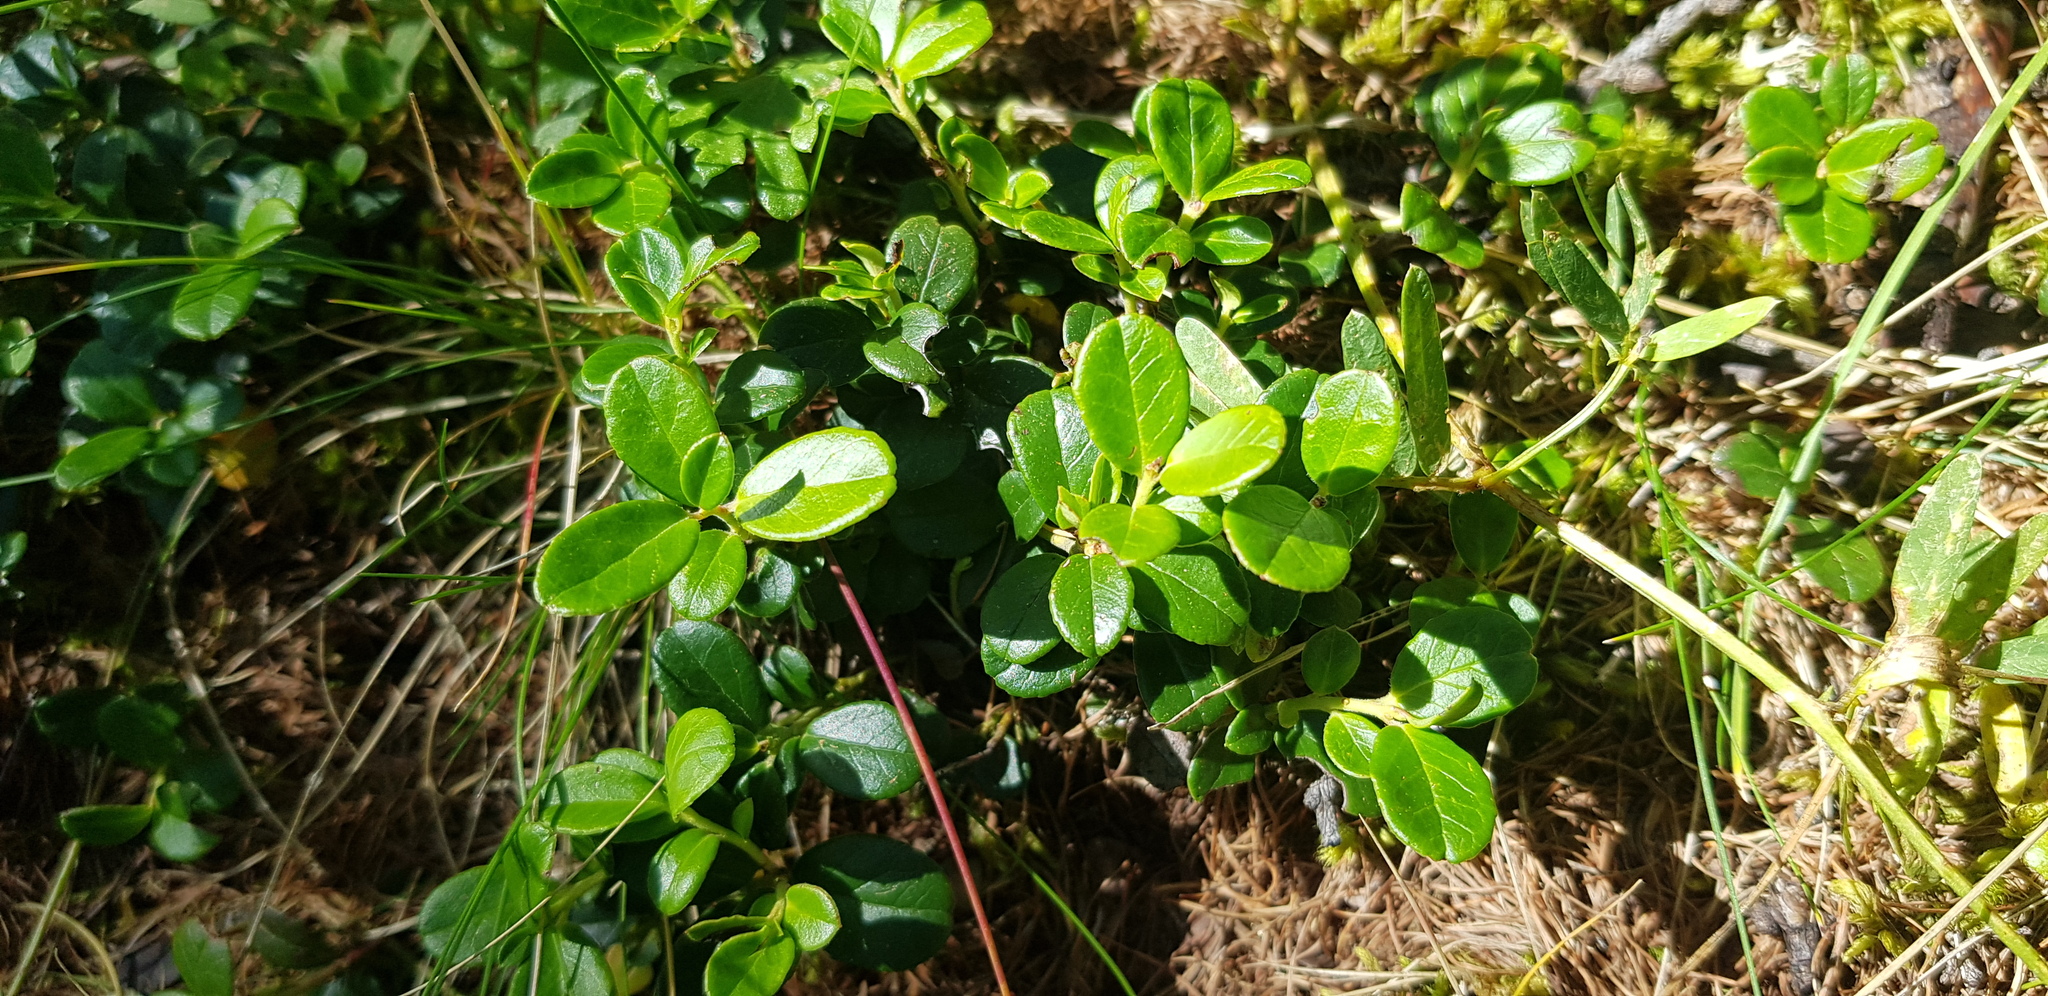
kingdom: Plantae
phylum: Tracheophyta
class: Magnoliopsida
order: Ericales
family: Ericaceae
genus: Vaccinium
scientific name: Vaccinium vitis-idaea
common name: Cowberry
